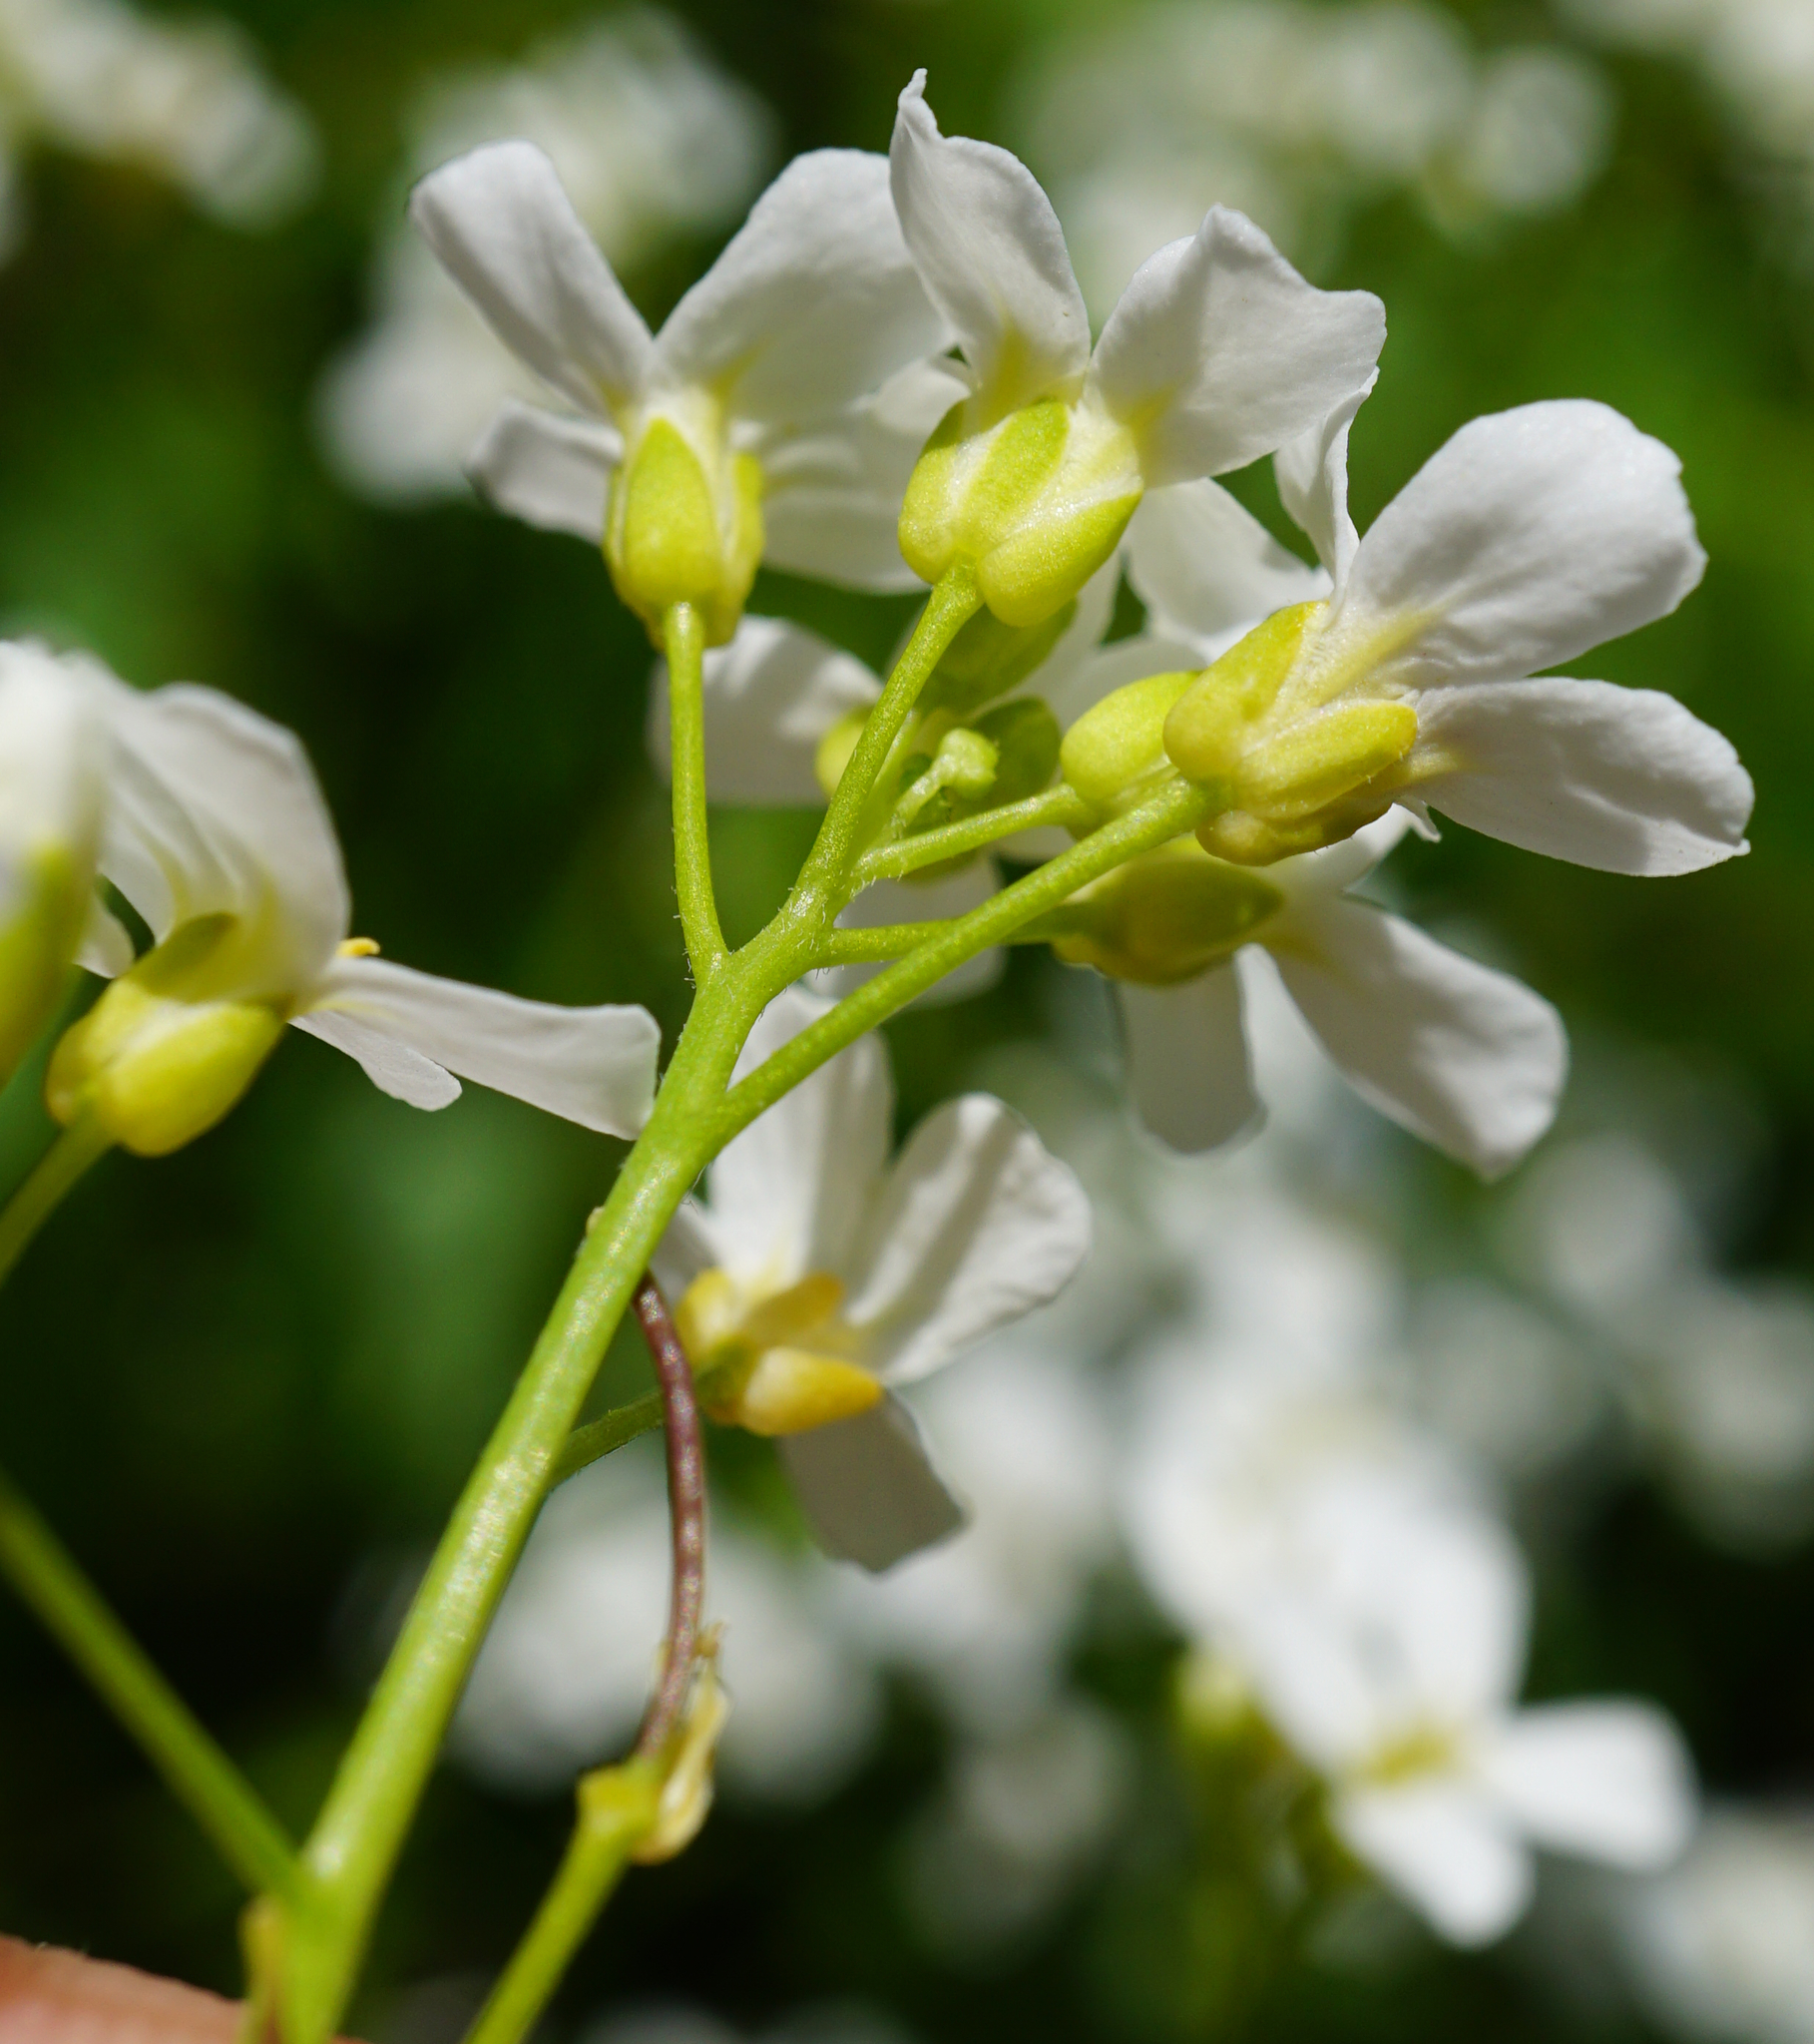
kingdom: Plantae
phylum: Tracheophyta
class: Magnoliopsida
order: Brassicales
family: Brassicaceae
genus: Arabidopsis
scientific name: Arabidopsis halleri
